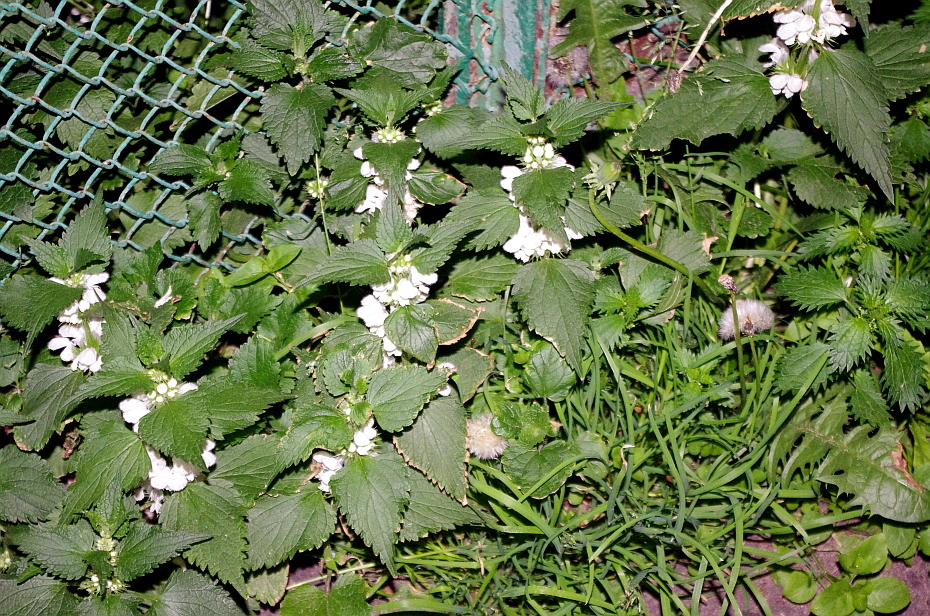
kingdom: Plantae
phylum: Tracheophyta
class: Magnoliopsida
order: Lamiales
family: Lamiaceae
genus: Lamium
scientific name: Lamium album
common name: White dead-nettle
